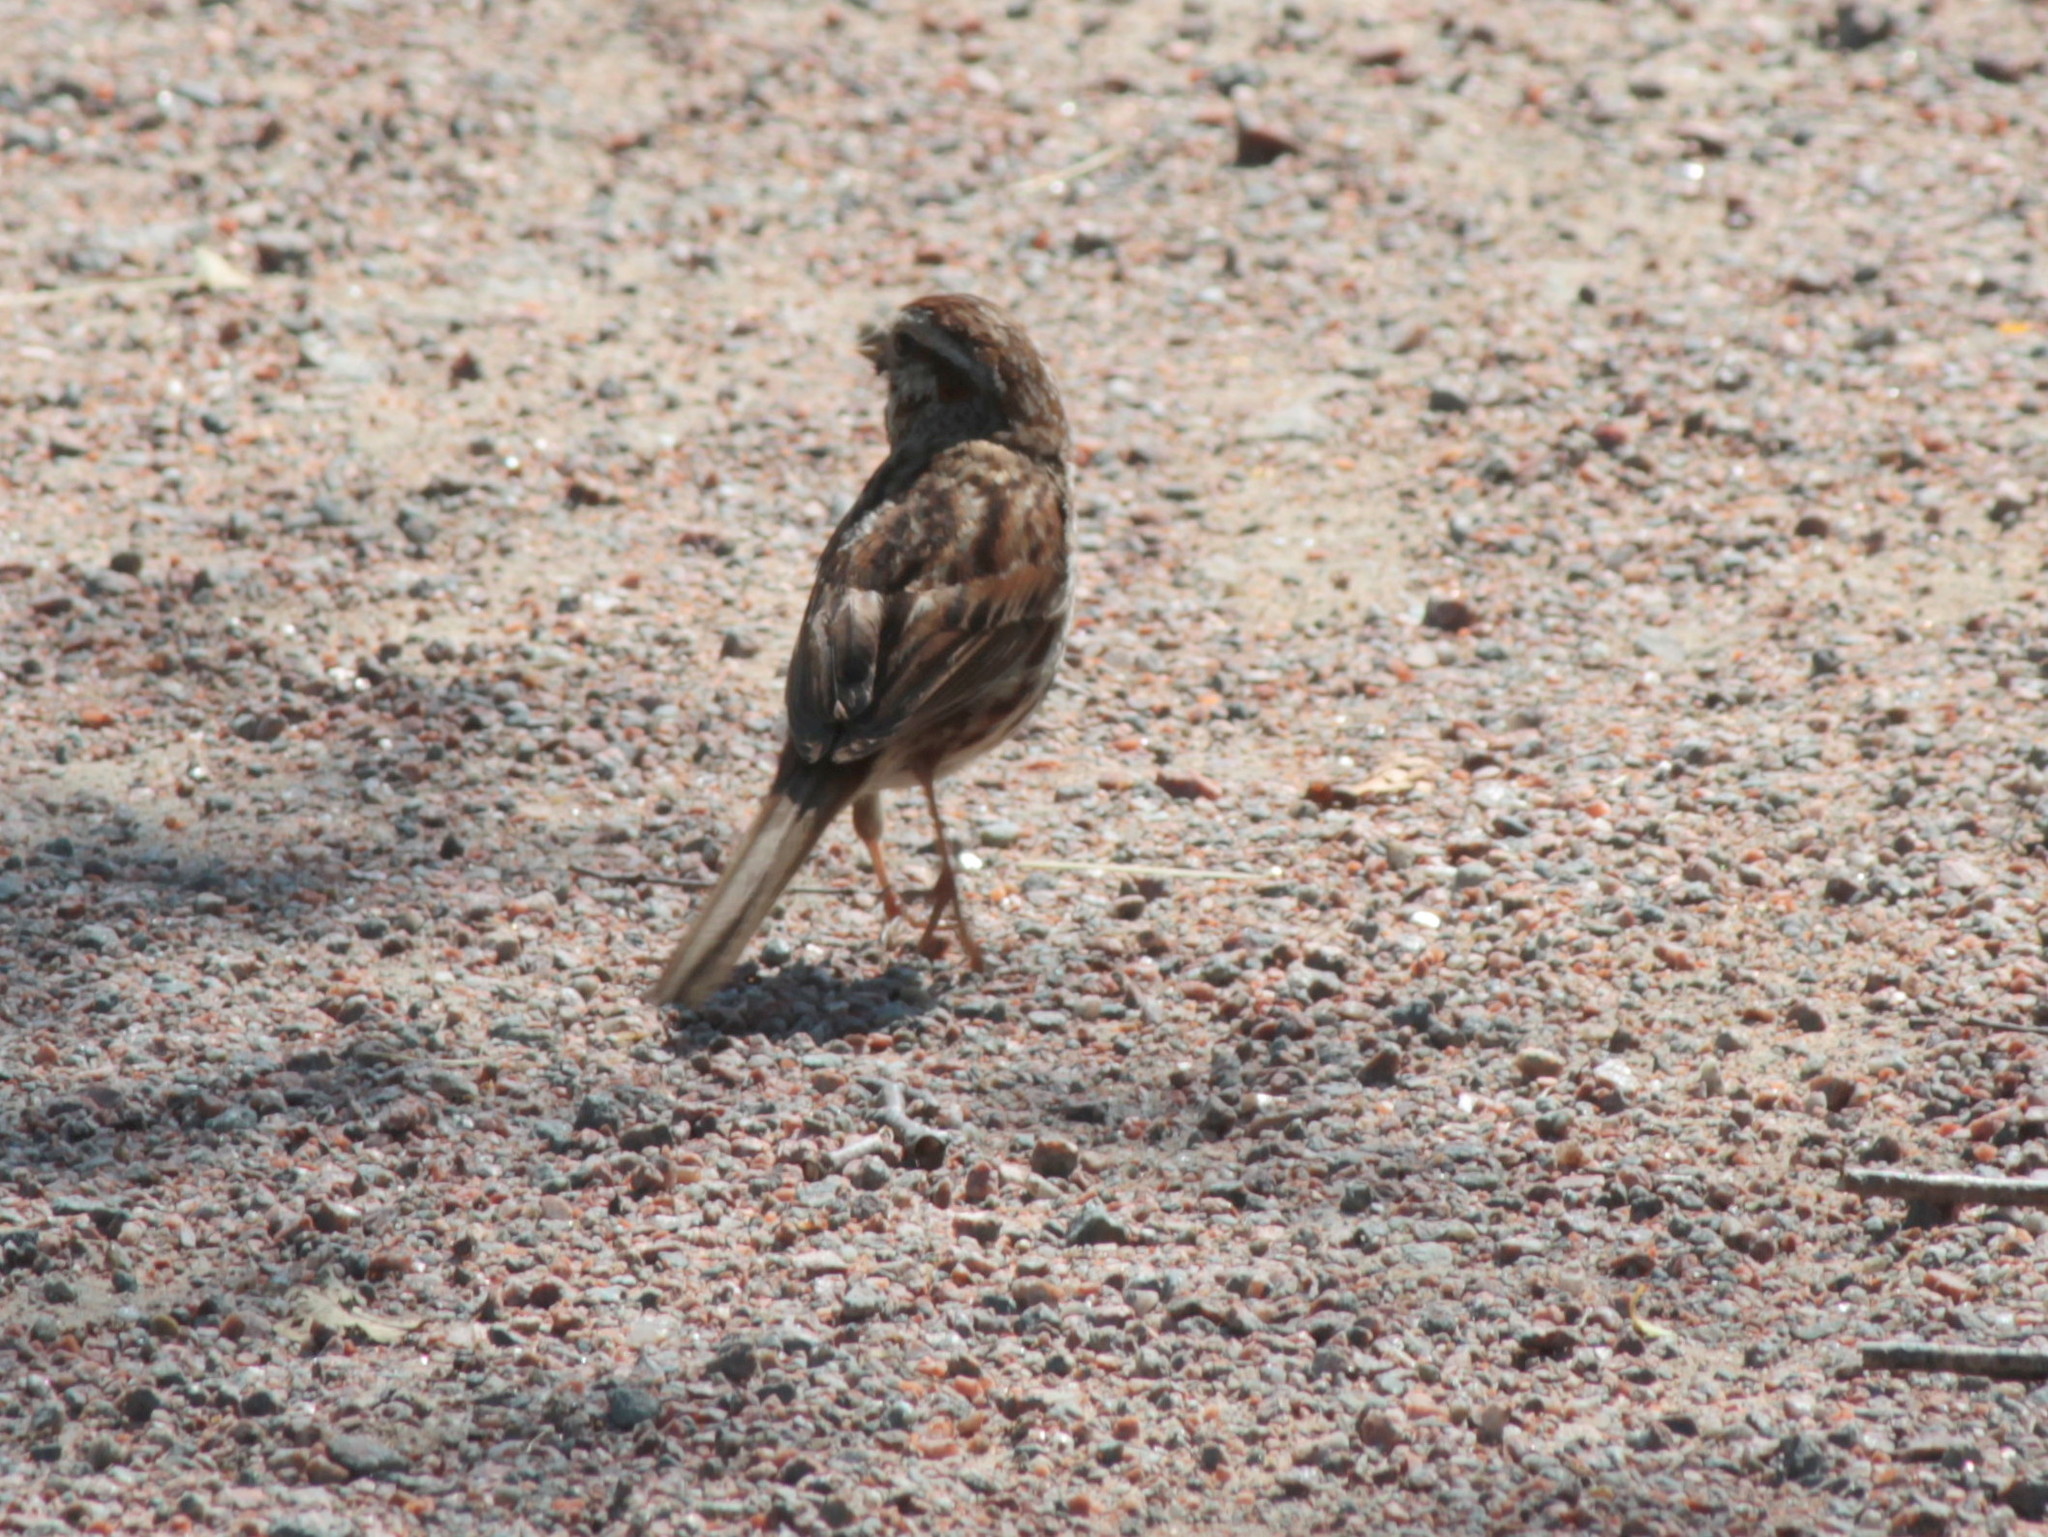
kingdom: Animalia
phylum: Chordata
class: Aves
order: Passeriformes
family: Passerellidae
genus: Melospiza
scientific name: Melospiza melodia
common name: Song sparrow
